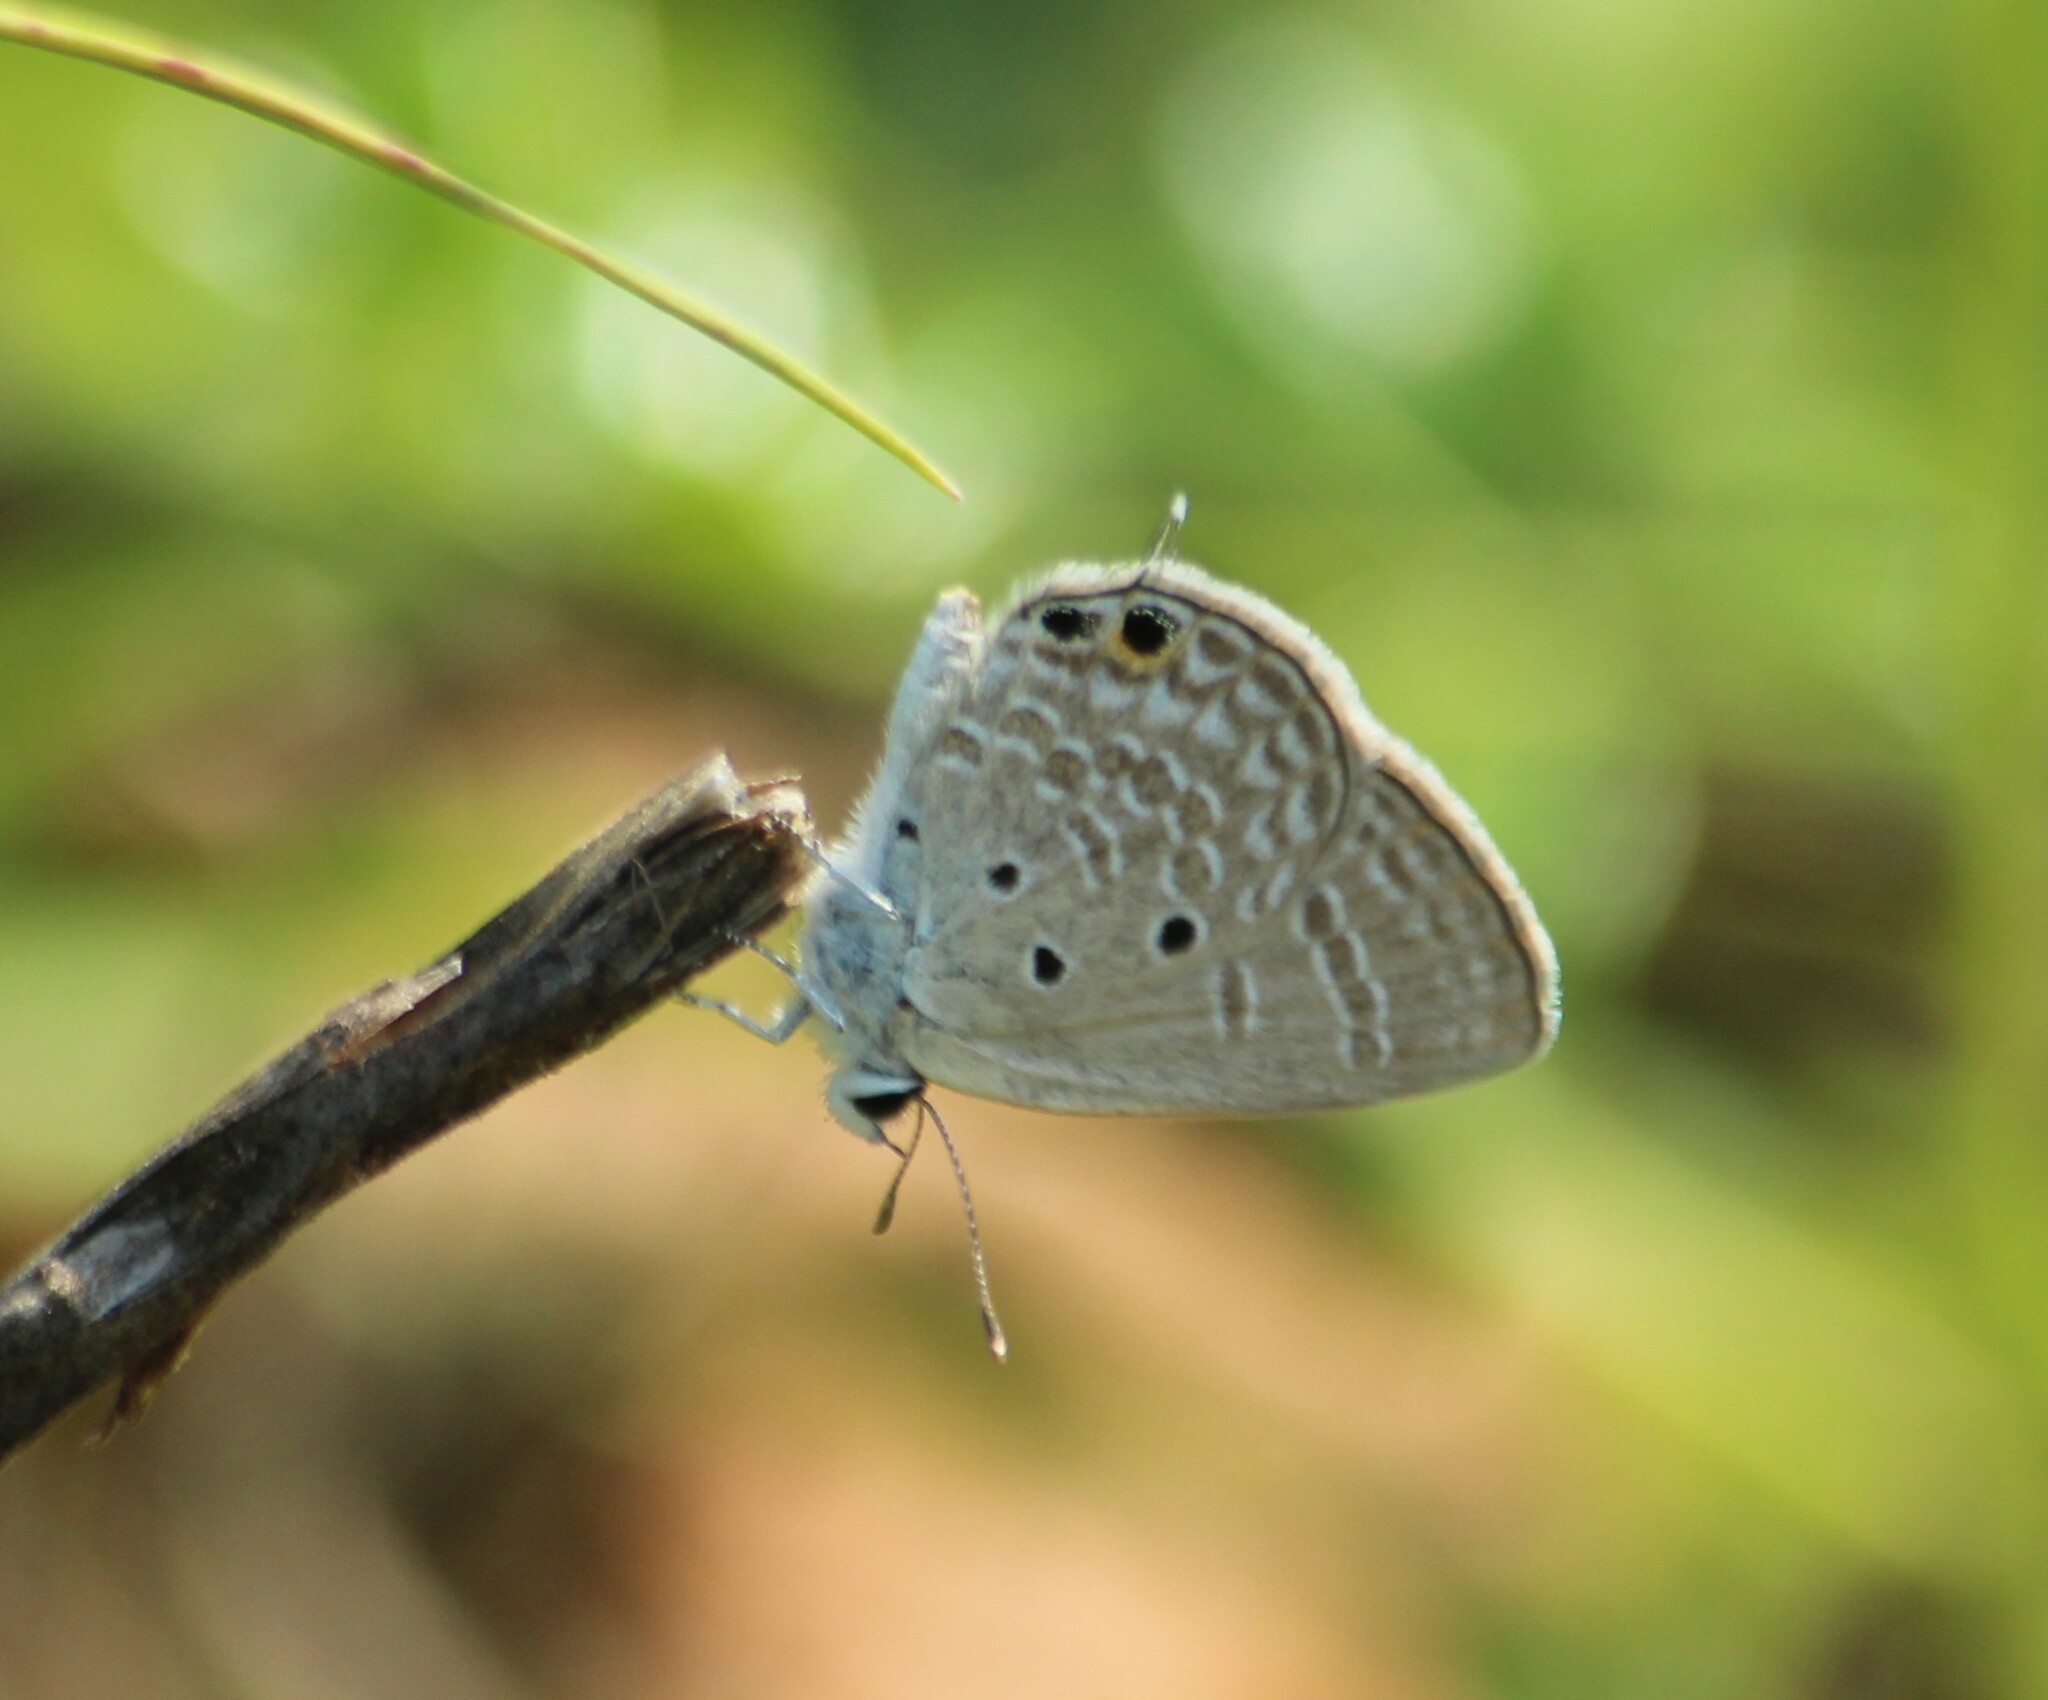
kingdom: Animalia
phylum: Arthropoda
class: Insecta
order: Lepidoptera
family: Lycaenidae
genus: Chilades
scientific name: Chilades parrhasius
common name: Small cupid
